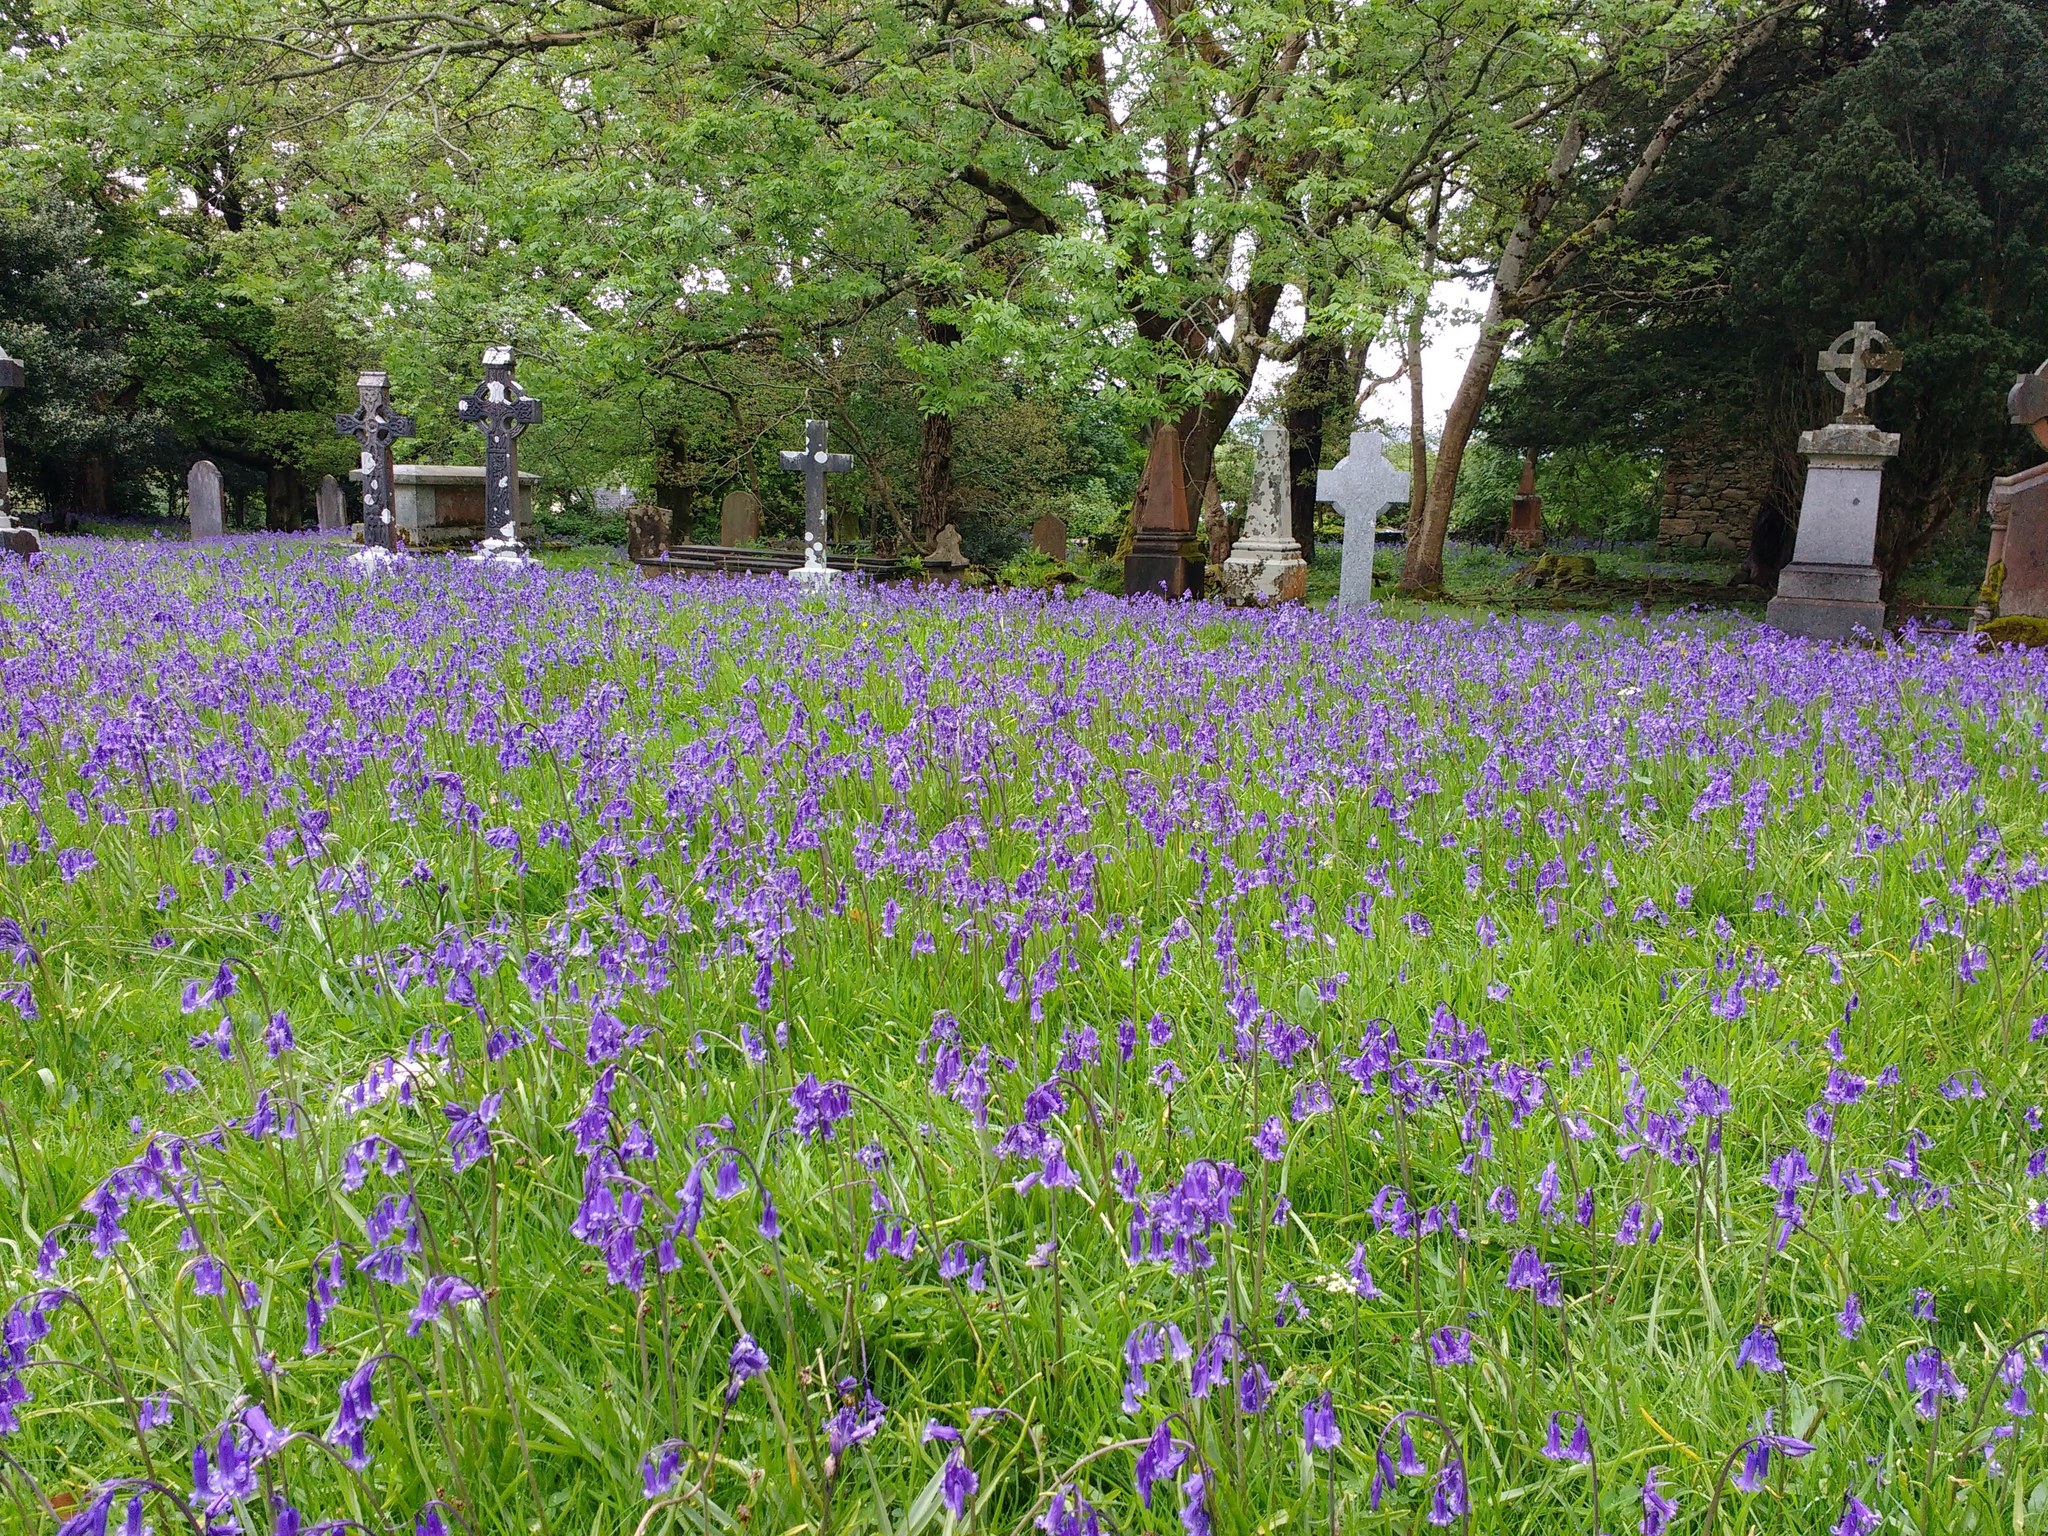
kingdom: Plantae
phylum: Tracheophyta
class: Liliopsida
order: Asparagales
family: Asparagaceae
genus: Hyacinthoides
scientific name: Hyacinthoides non-scripta
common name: Bluebell
